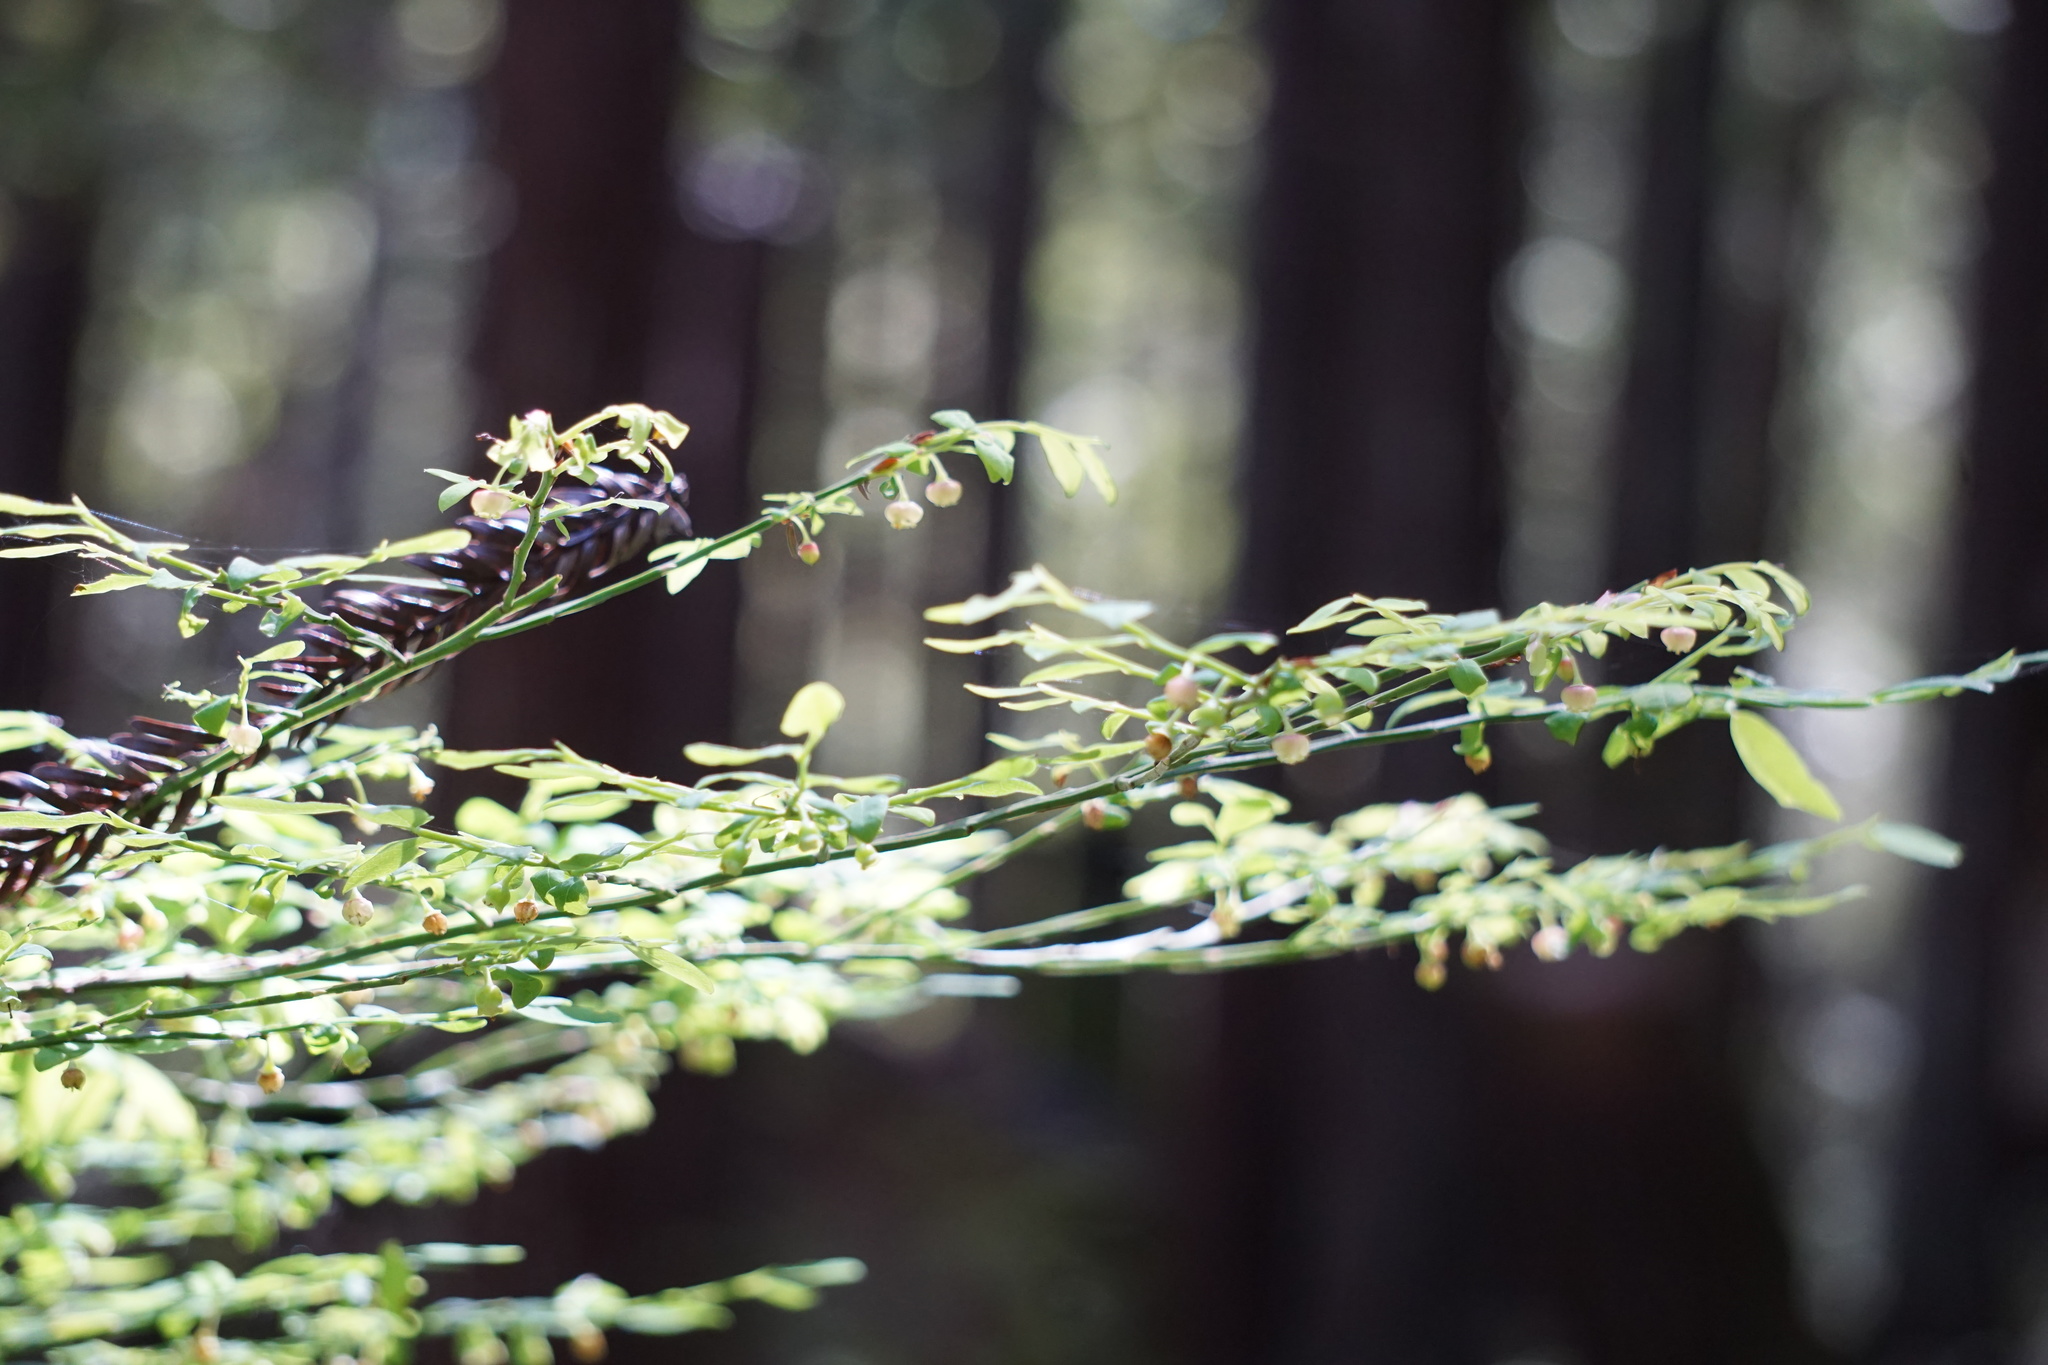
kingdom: Plantae
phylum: Tracheophyta
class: Magnoliopsida
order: Ericales
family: Ericaceae
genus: Vaccinium
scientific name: Vaccinium parvifolium
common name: Red-huckleberry
